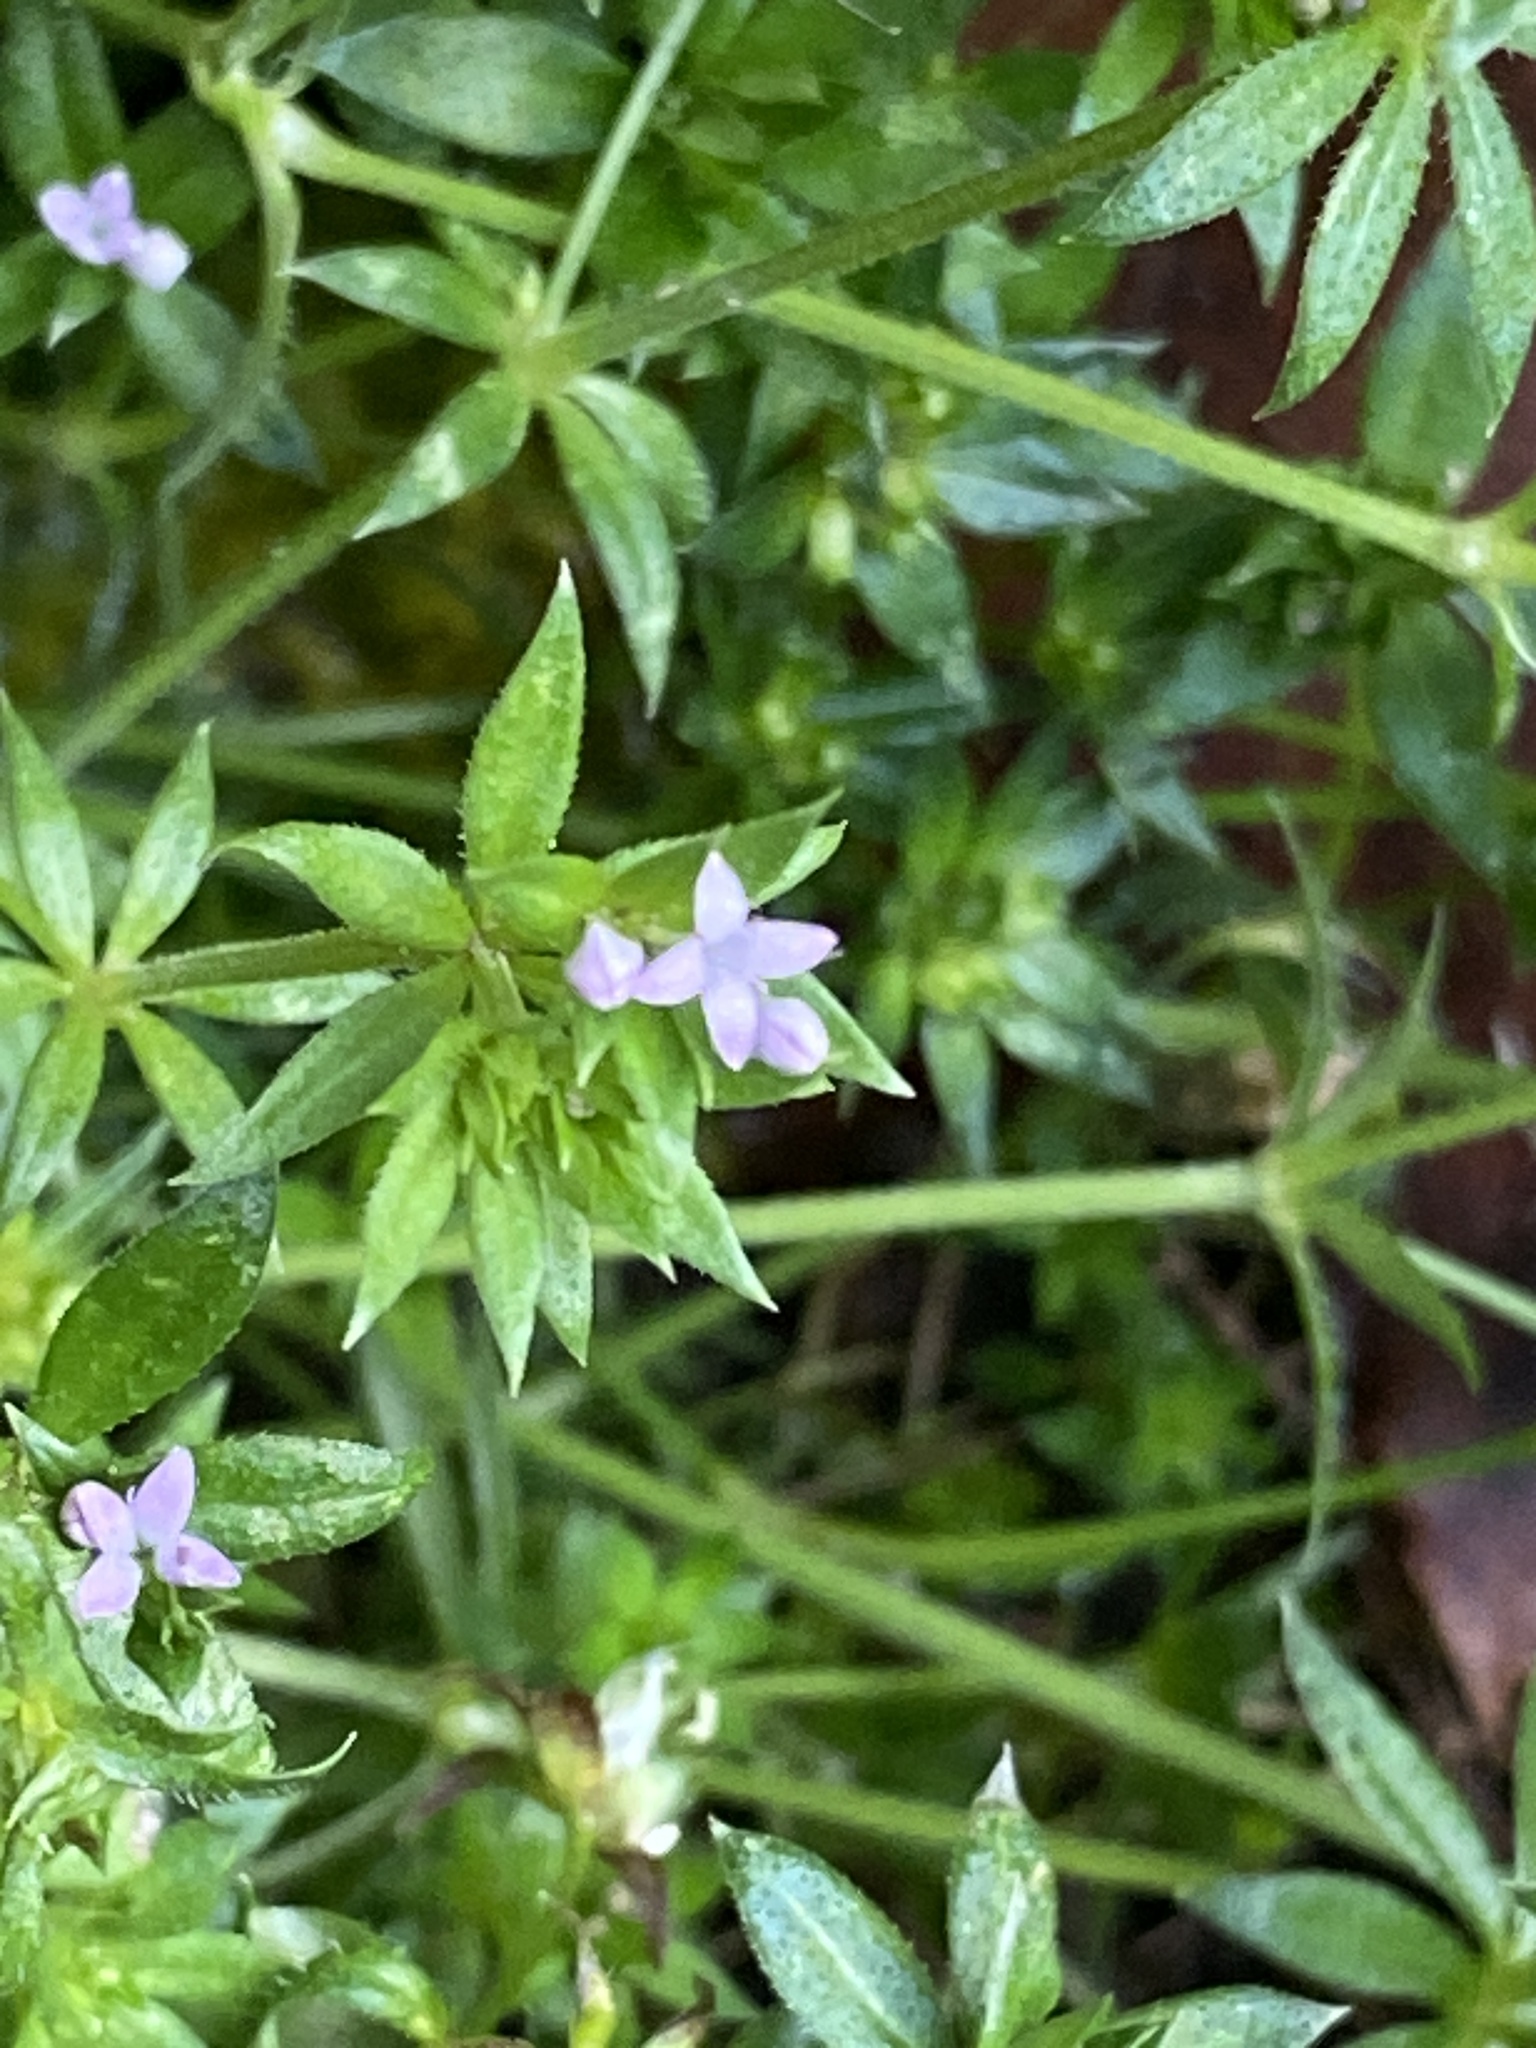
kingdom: Plantae
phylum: Tracheophyta
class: Magnoliopsida
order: Gentianales
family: Rubiaceae
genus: Sherardia
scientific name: Sherardia arvensis
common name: Field madder
